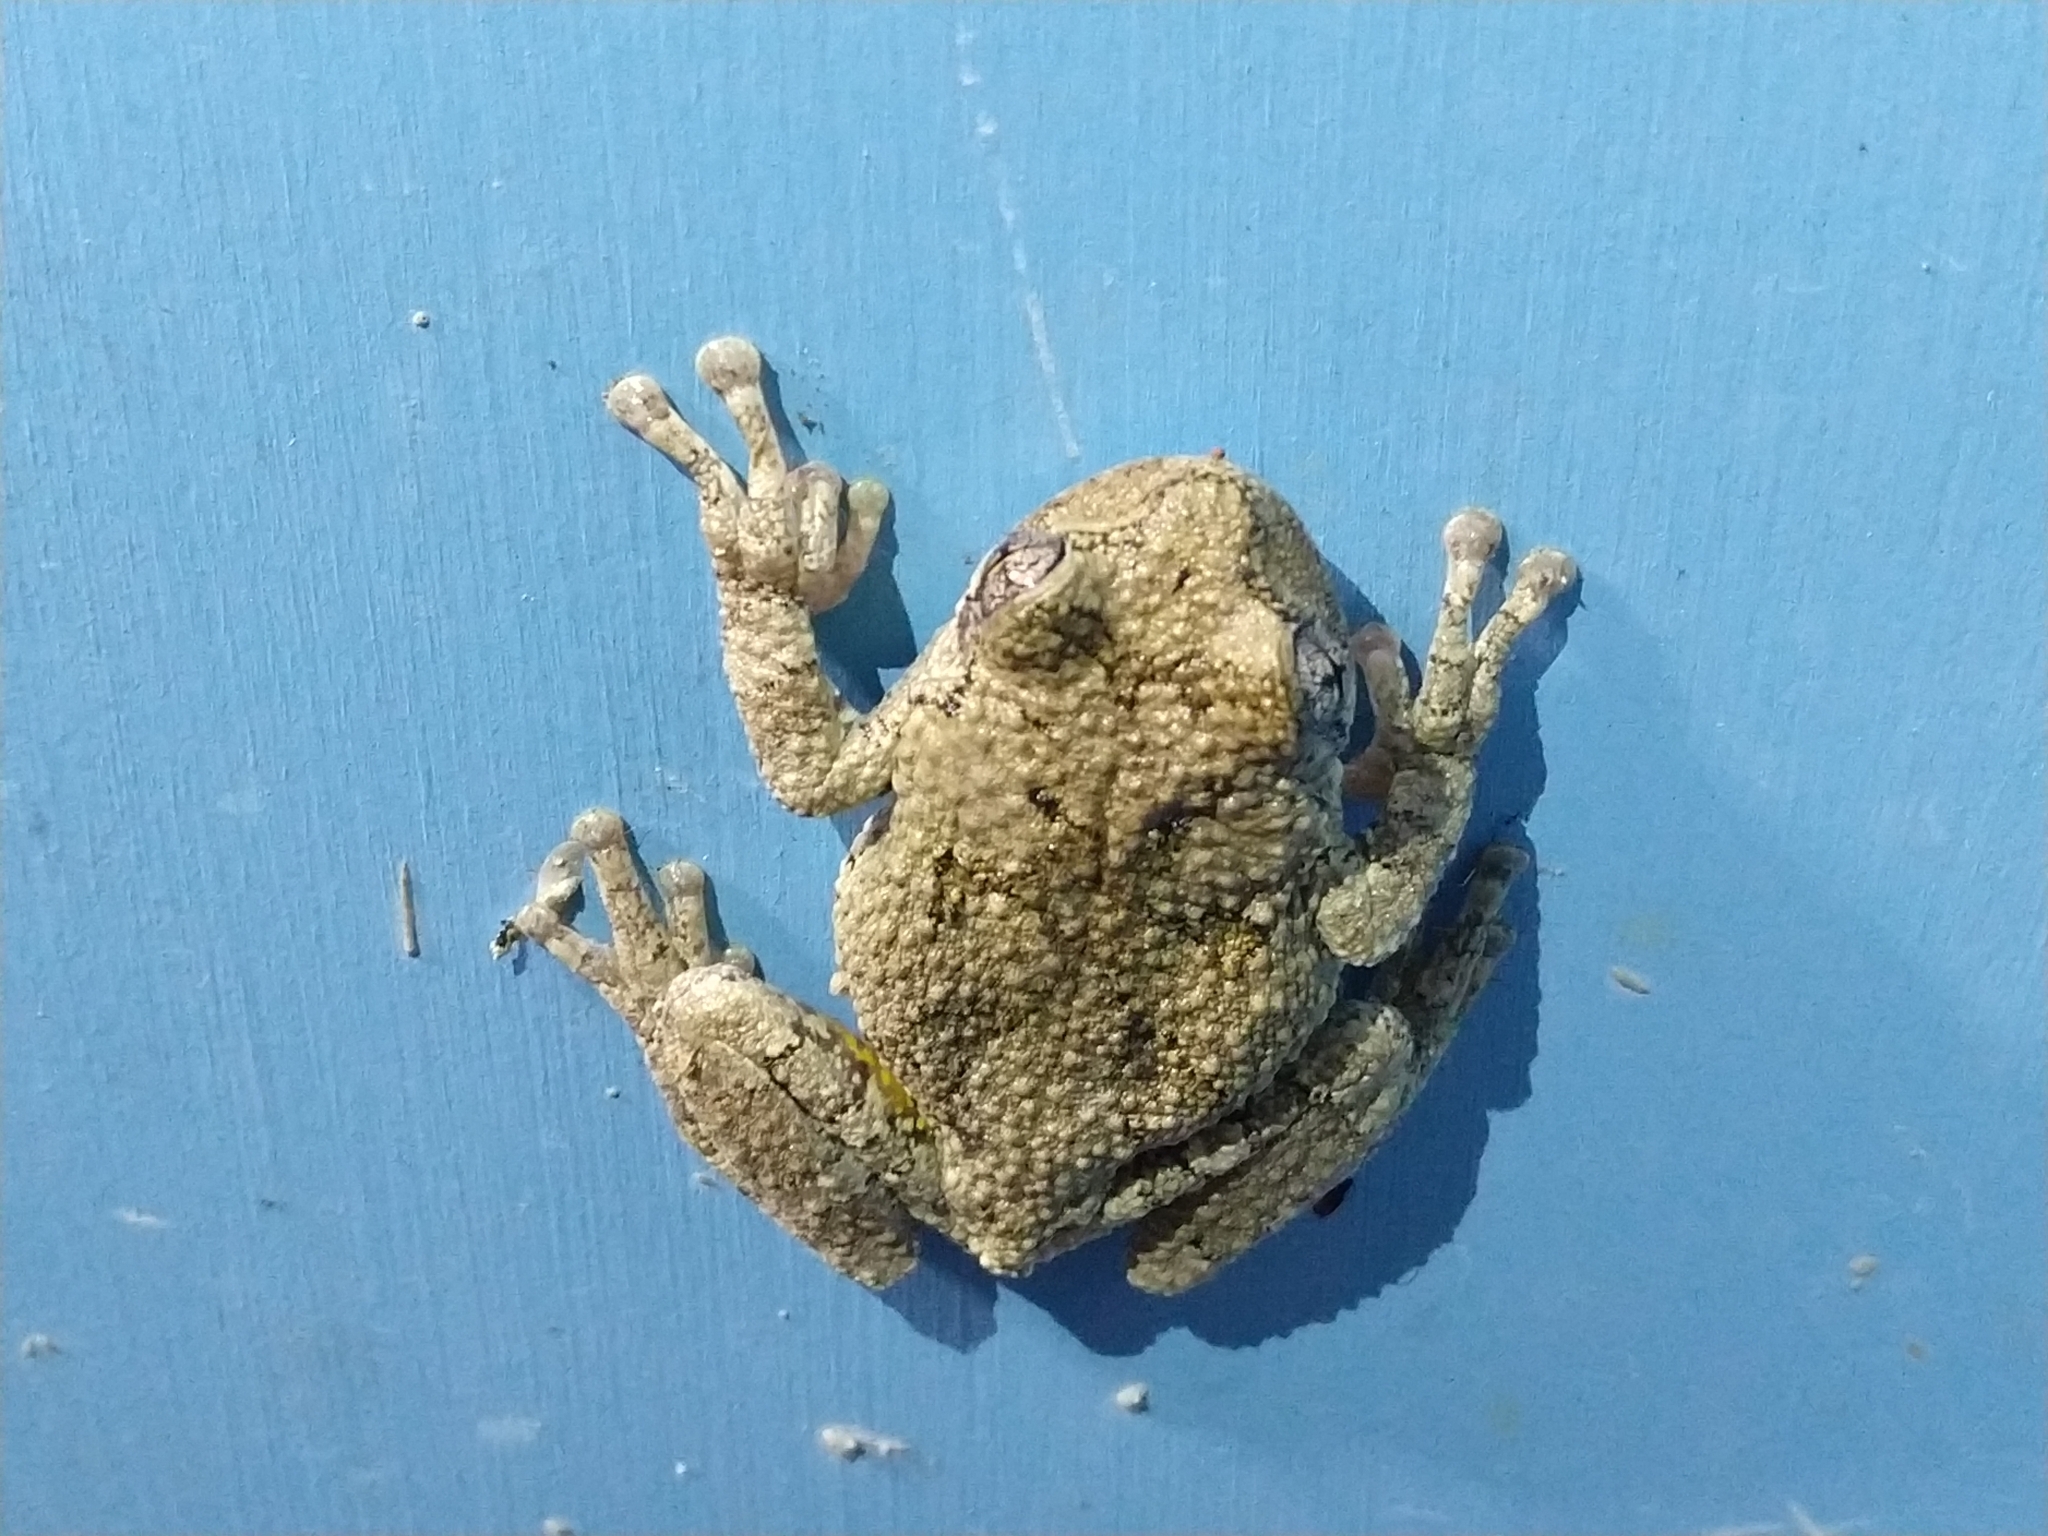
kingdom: Animalia
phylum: Chordata
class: Amphibia
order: Anura
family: Hylidae
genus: Dryophytes
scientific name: Dryophytes chrysoscelis
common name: Cope's gray treefrog
